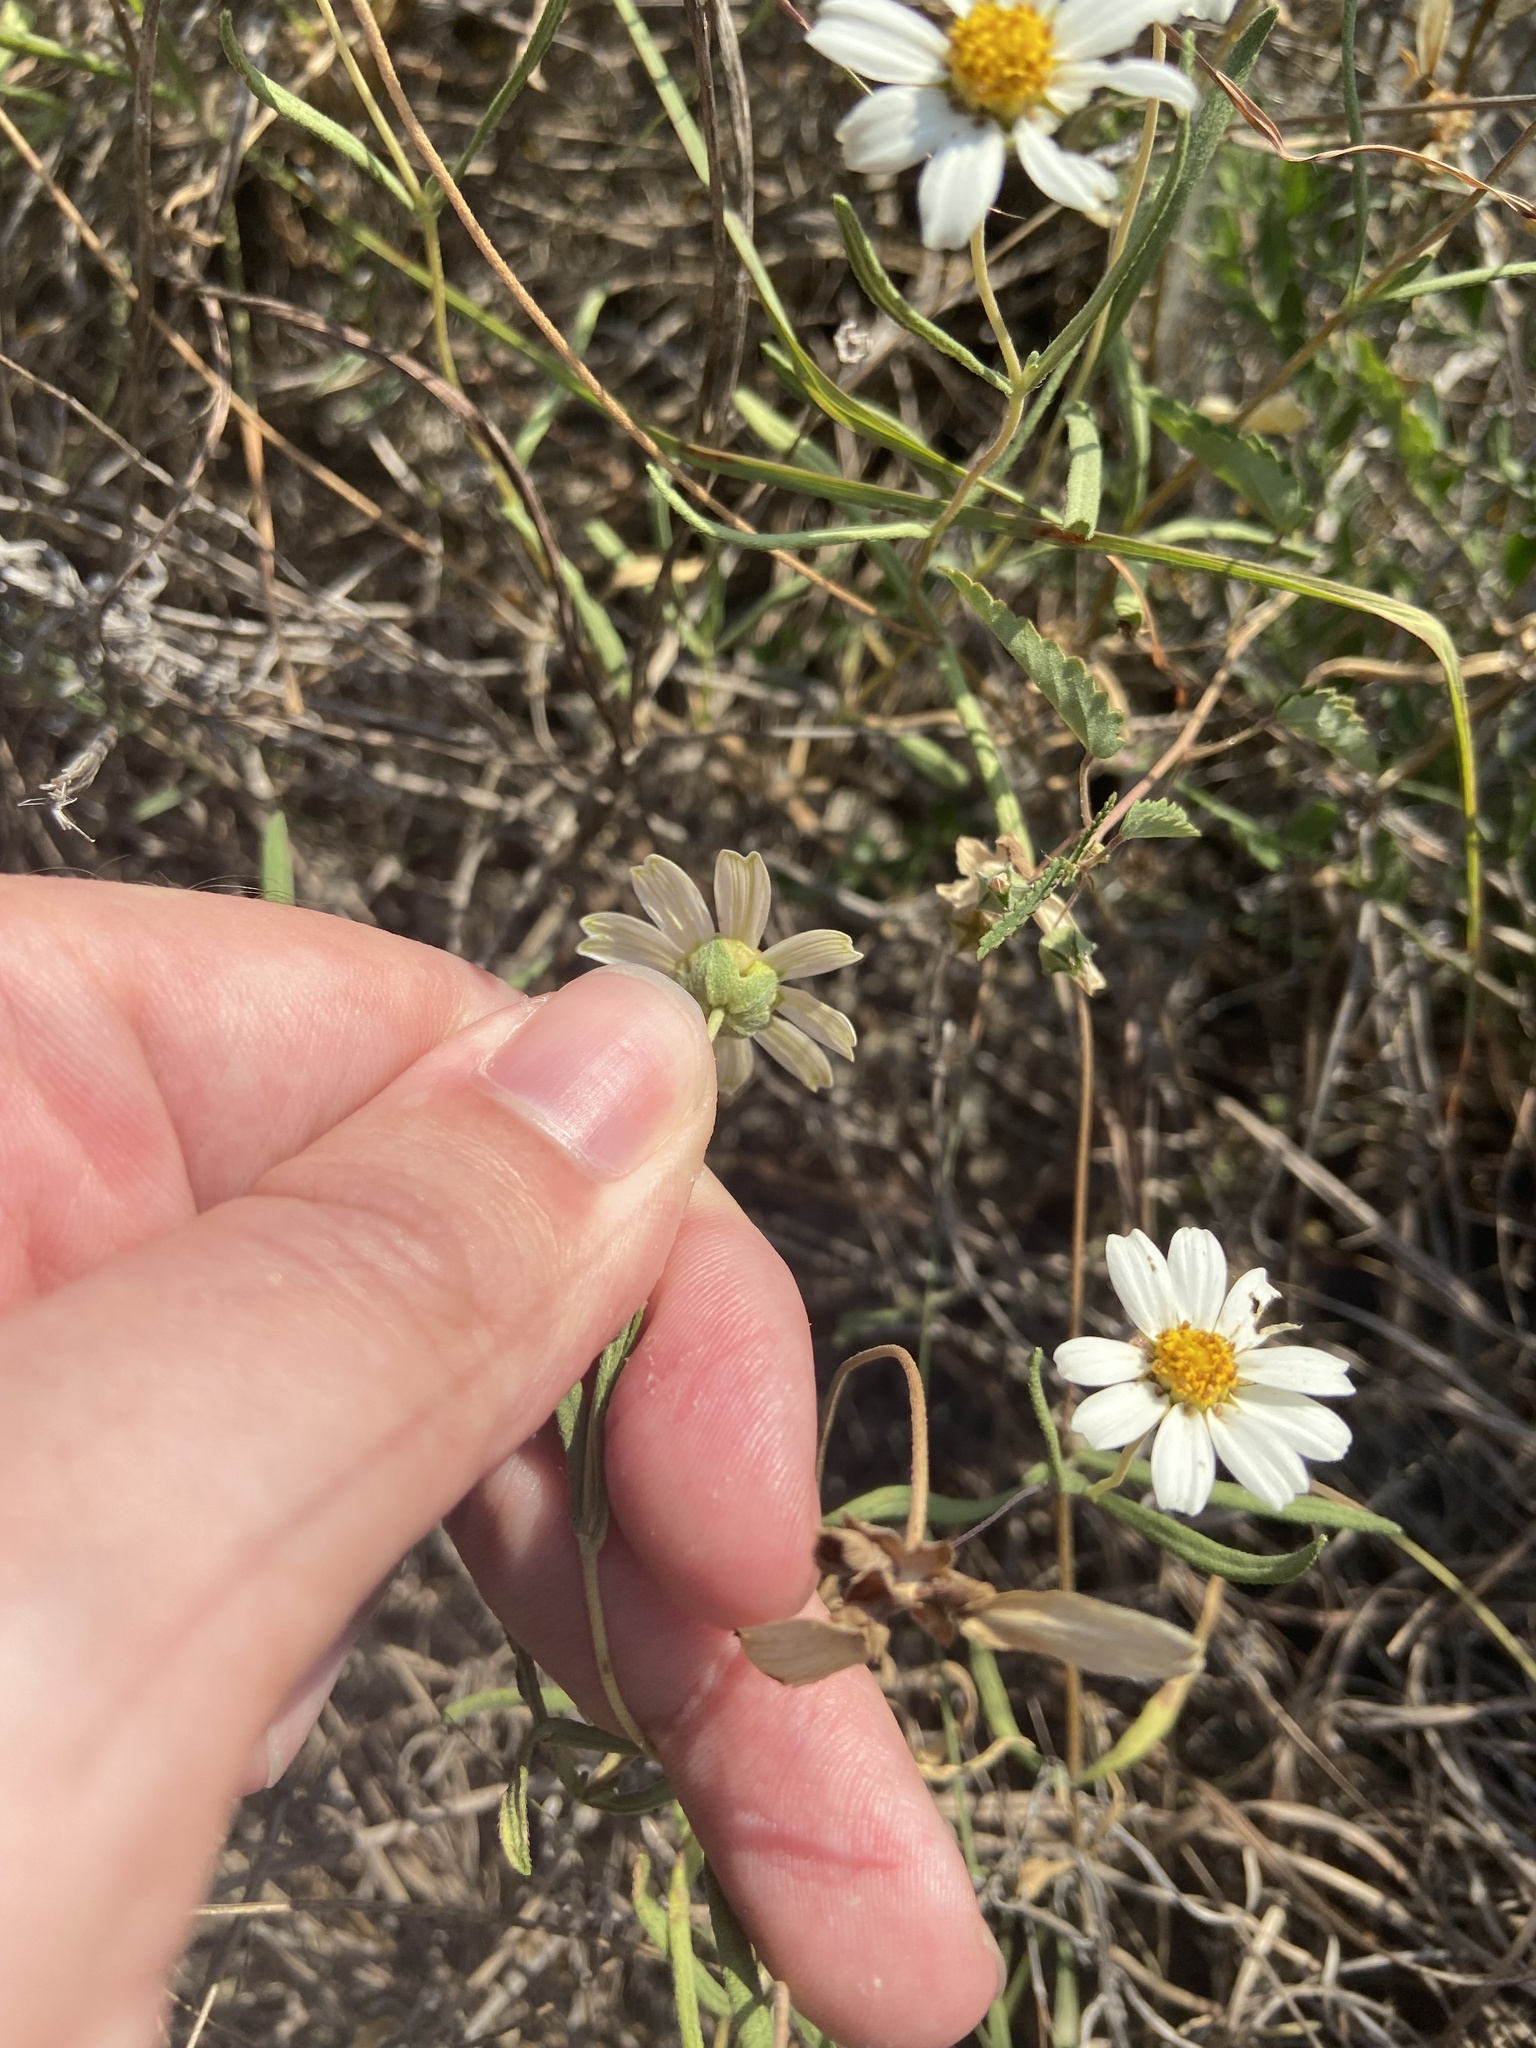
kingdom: Plantae
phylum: Tracheophyta
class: Magnoliopsida
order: Asterales
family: Asteraceae
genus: Melampodium
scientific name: Melampodium leucanthum
